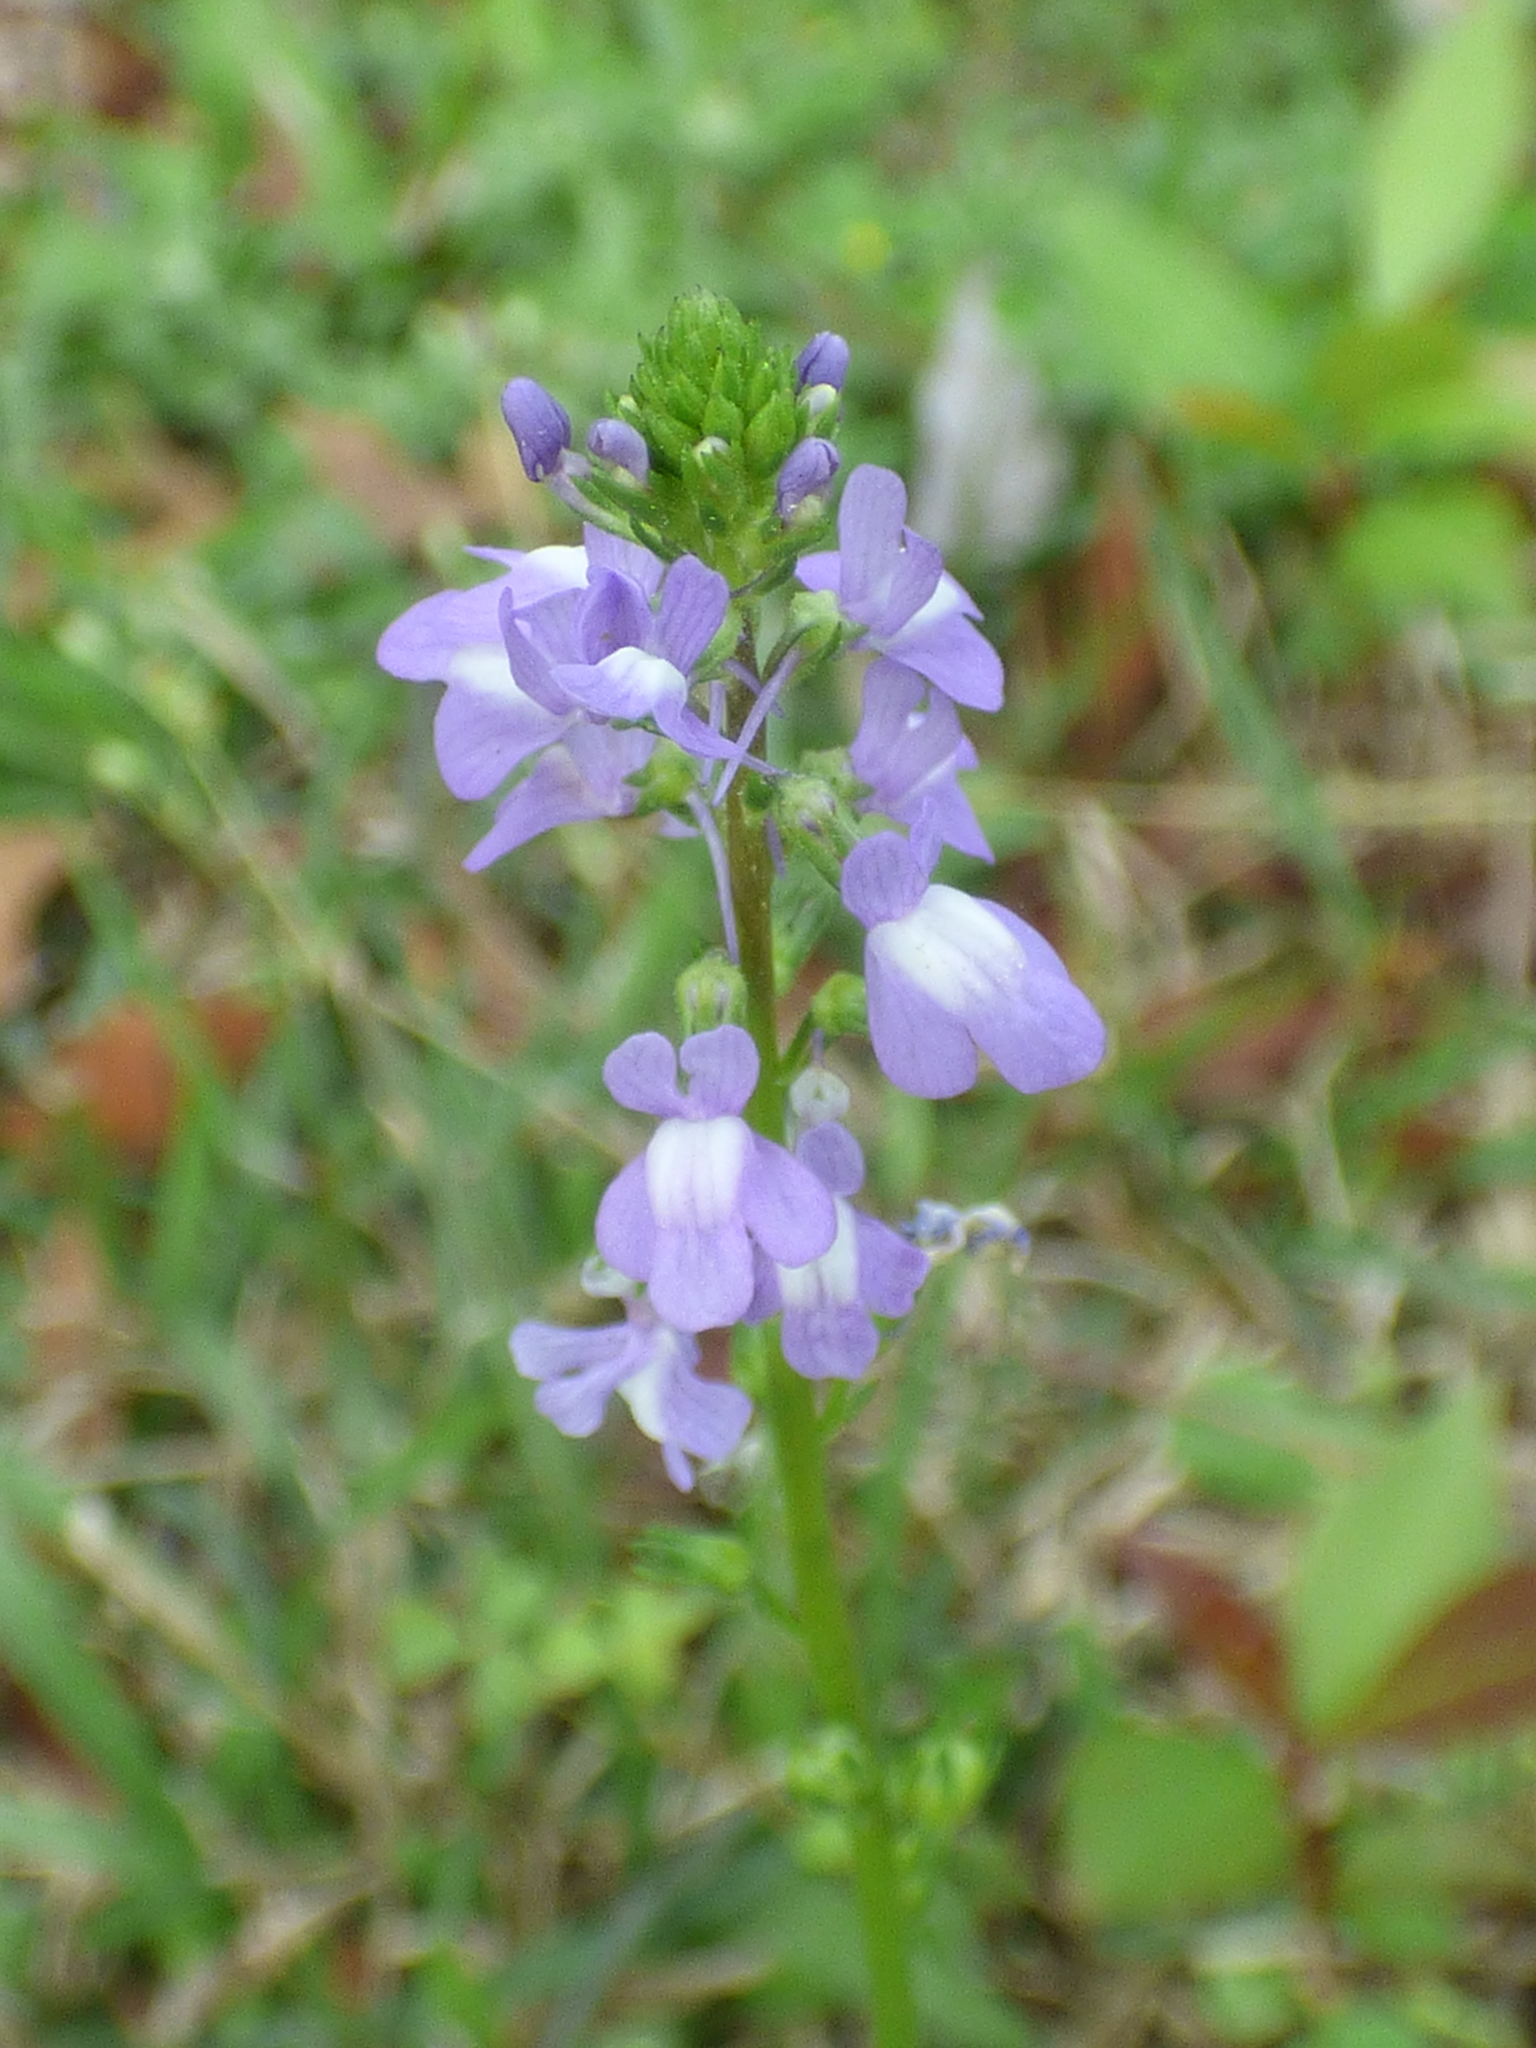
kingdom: Plantae
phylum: Tracheophyta
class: Magnoliopsida
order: Lamiales
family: Plantaginaceae
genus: Nuttallanthus
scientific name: Nuttallanthus canadensis
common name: Blue toadflax
